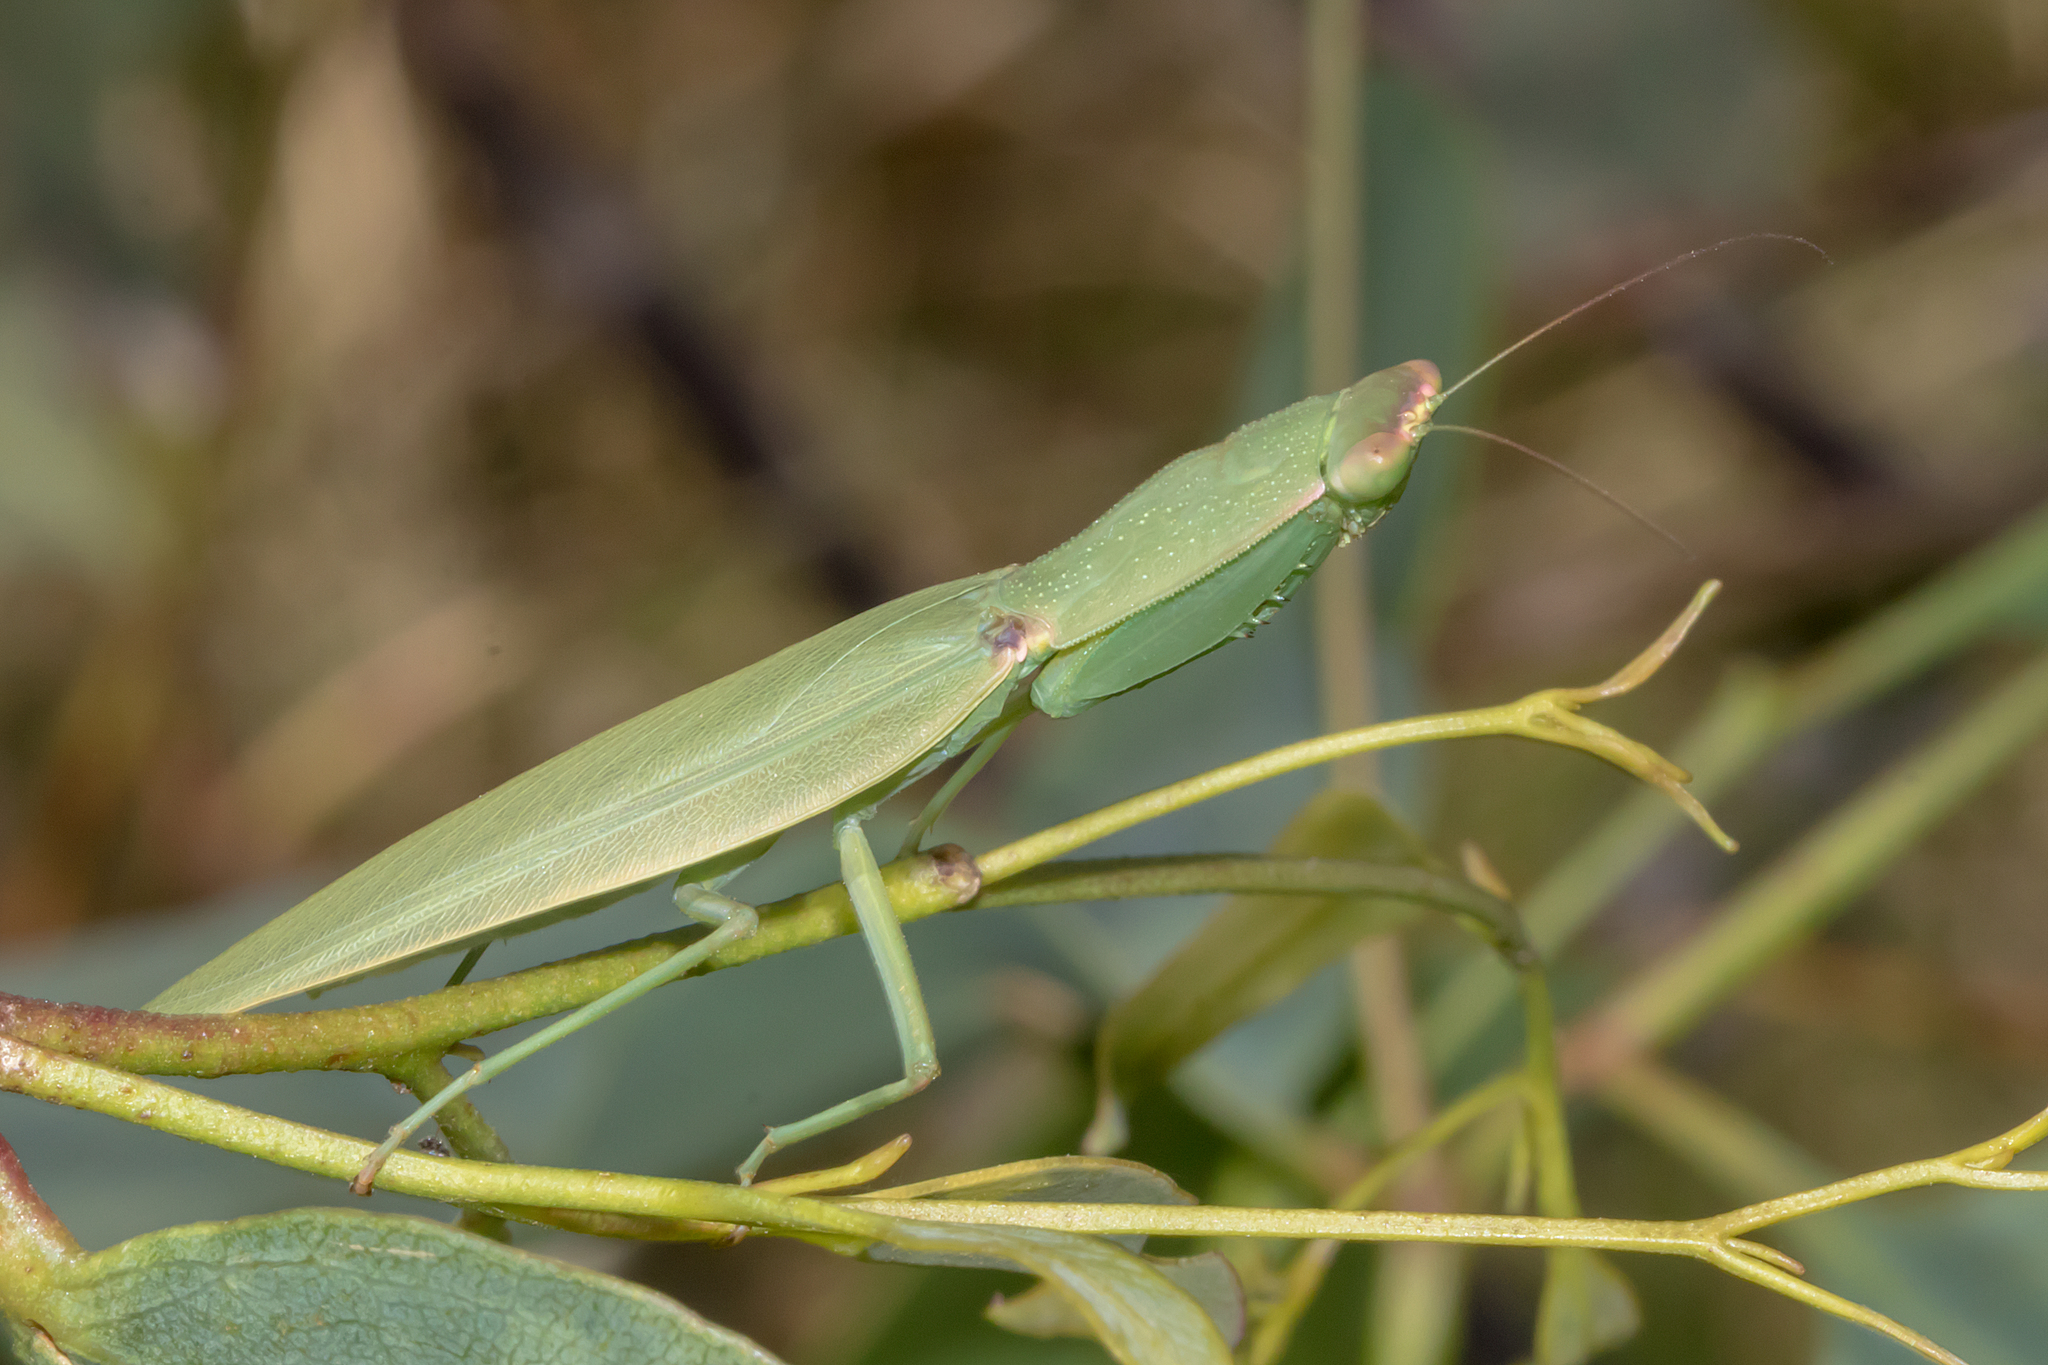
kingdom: Animalia
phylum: Arthropoda
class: Insecta
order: Mantodea
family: Mantidae
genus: Orthodera
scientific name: Orthodera ministralis
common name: Mantis
